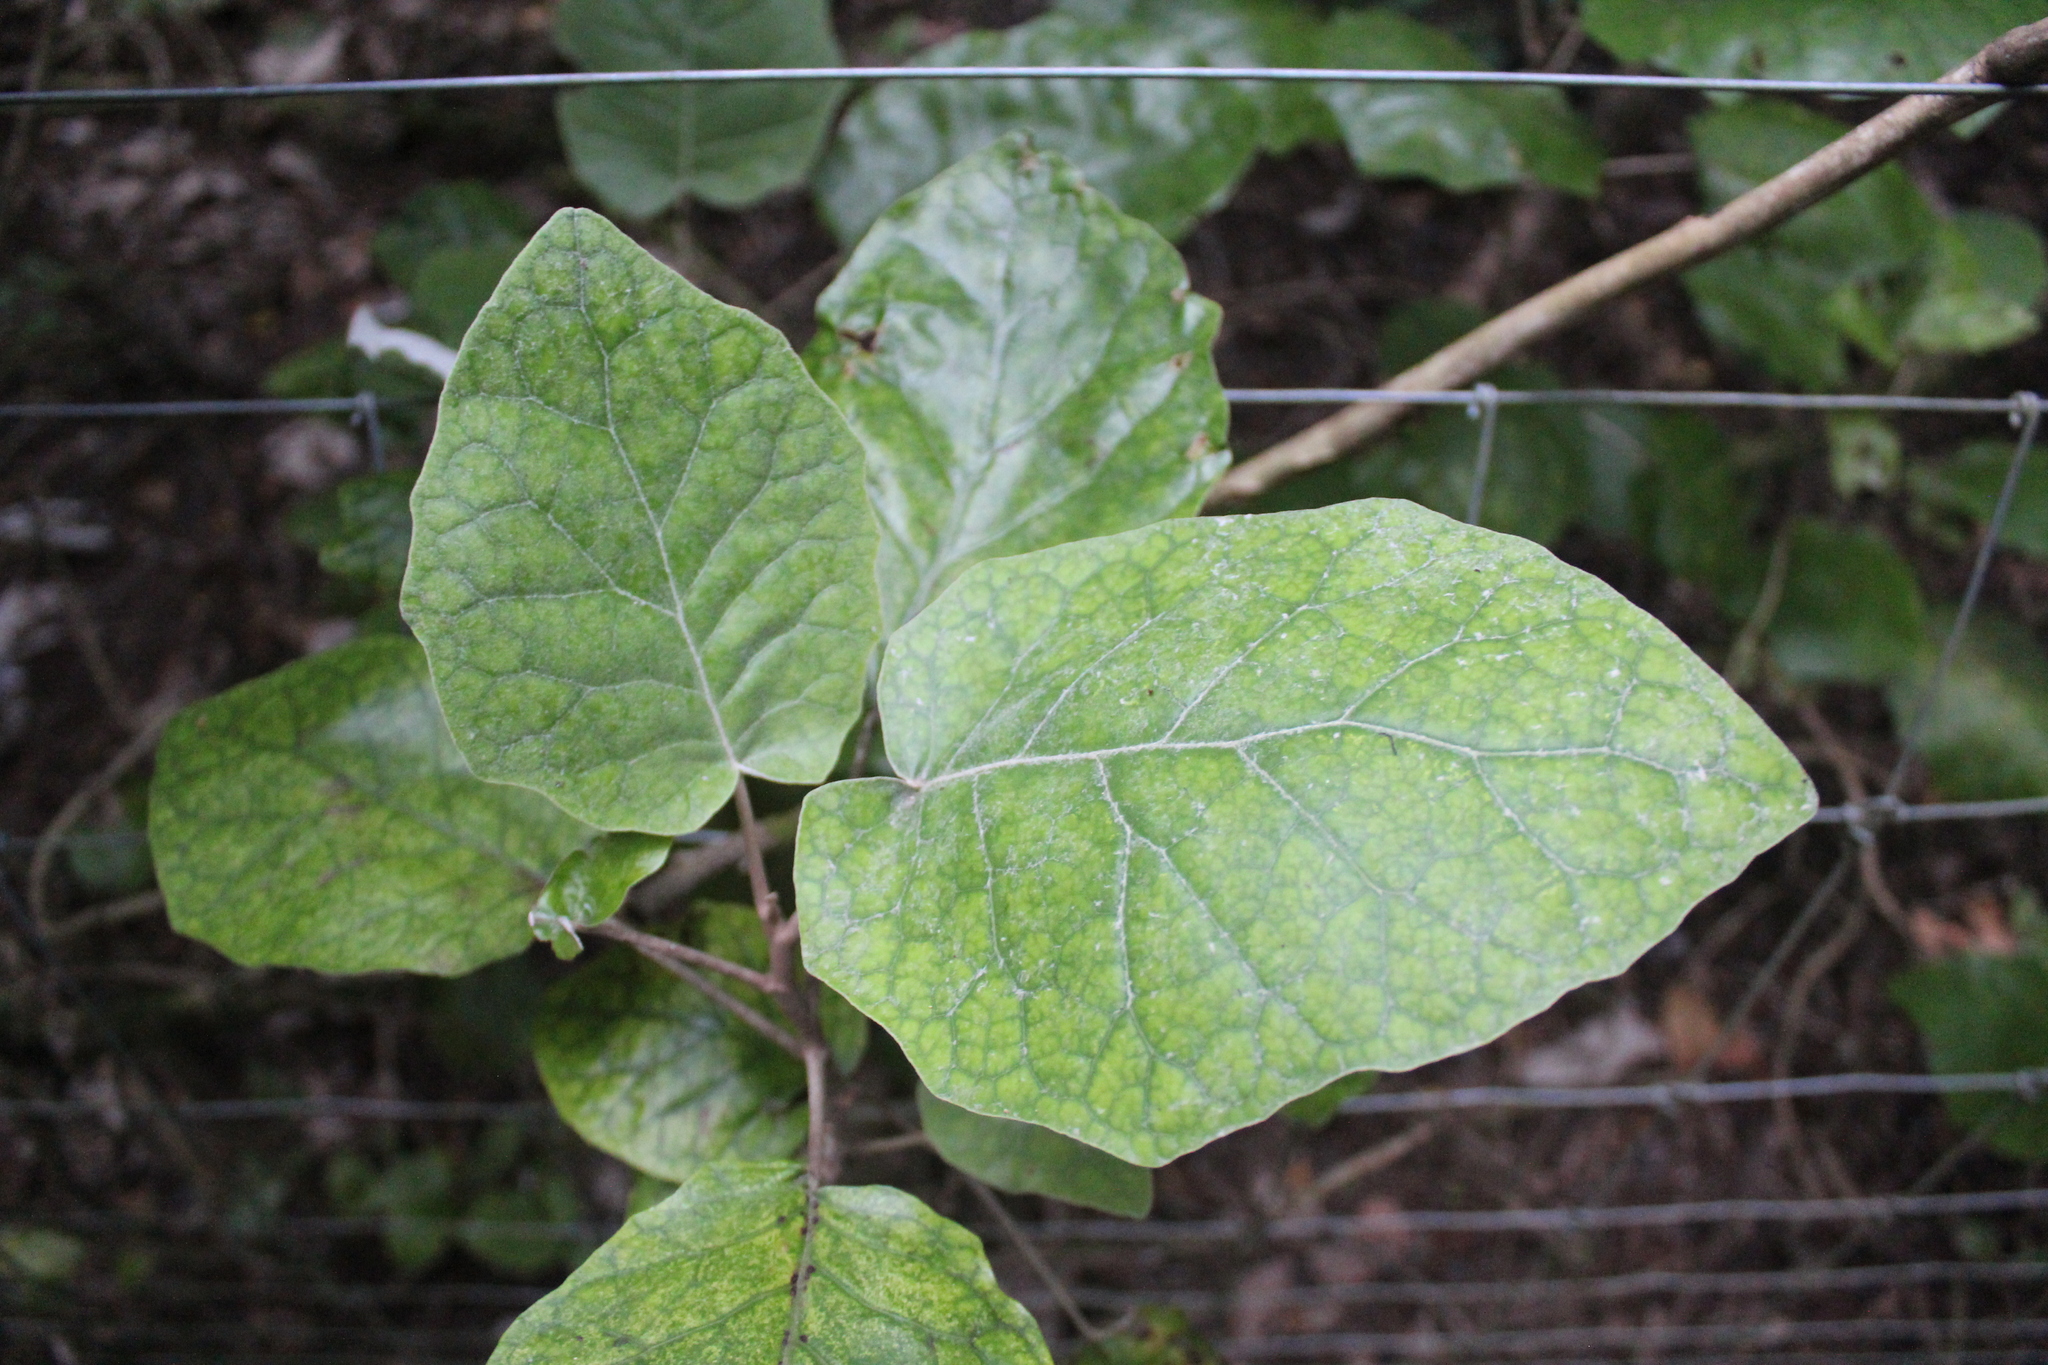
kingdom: Plantae
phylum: Tracheophyta
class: Magnoliopsida
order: Asterales
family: Asteraceae
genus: Brachyglottis
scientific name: Brachyglottis repanda
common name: Hedge ragwort
